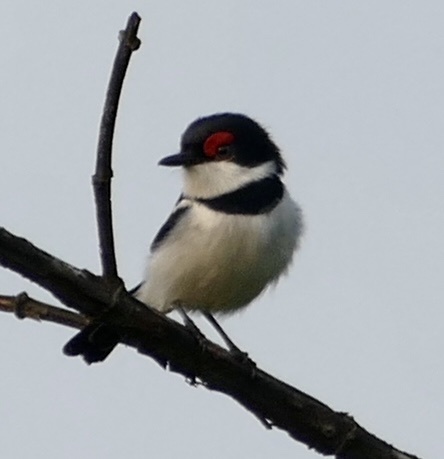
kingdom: Animalia
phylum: Chordata
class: Aves
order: Passeriformes
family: Platysteiridae
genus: Platysteira
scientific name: Platysteira cyanea
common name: Brown-throated wattle-eye
